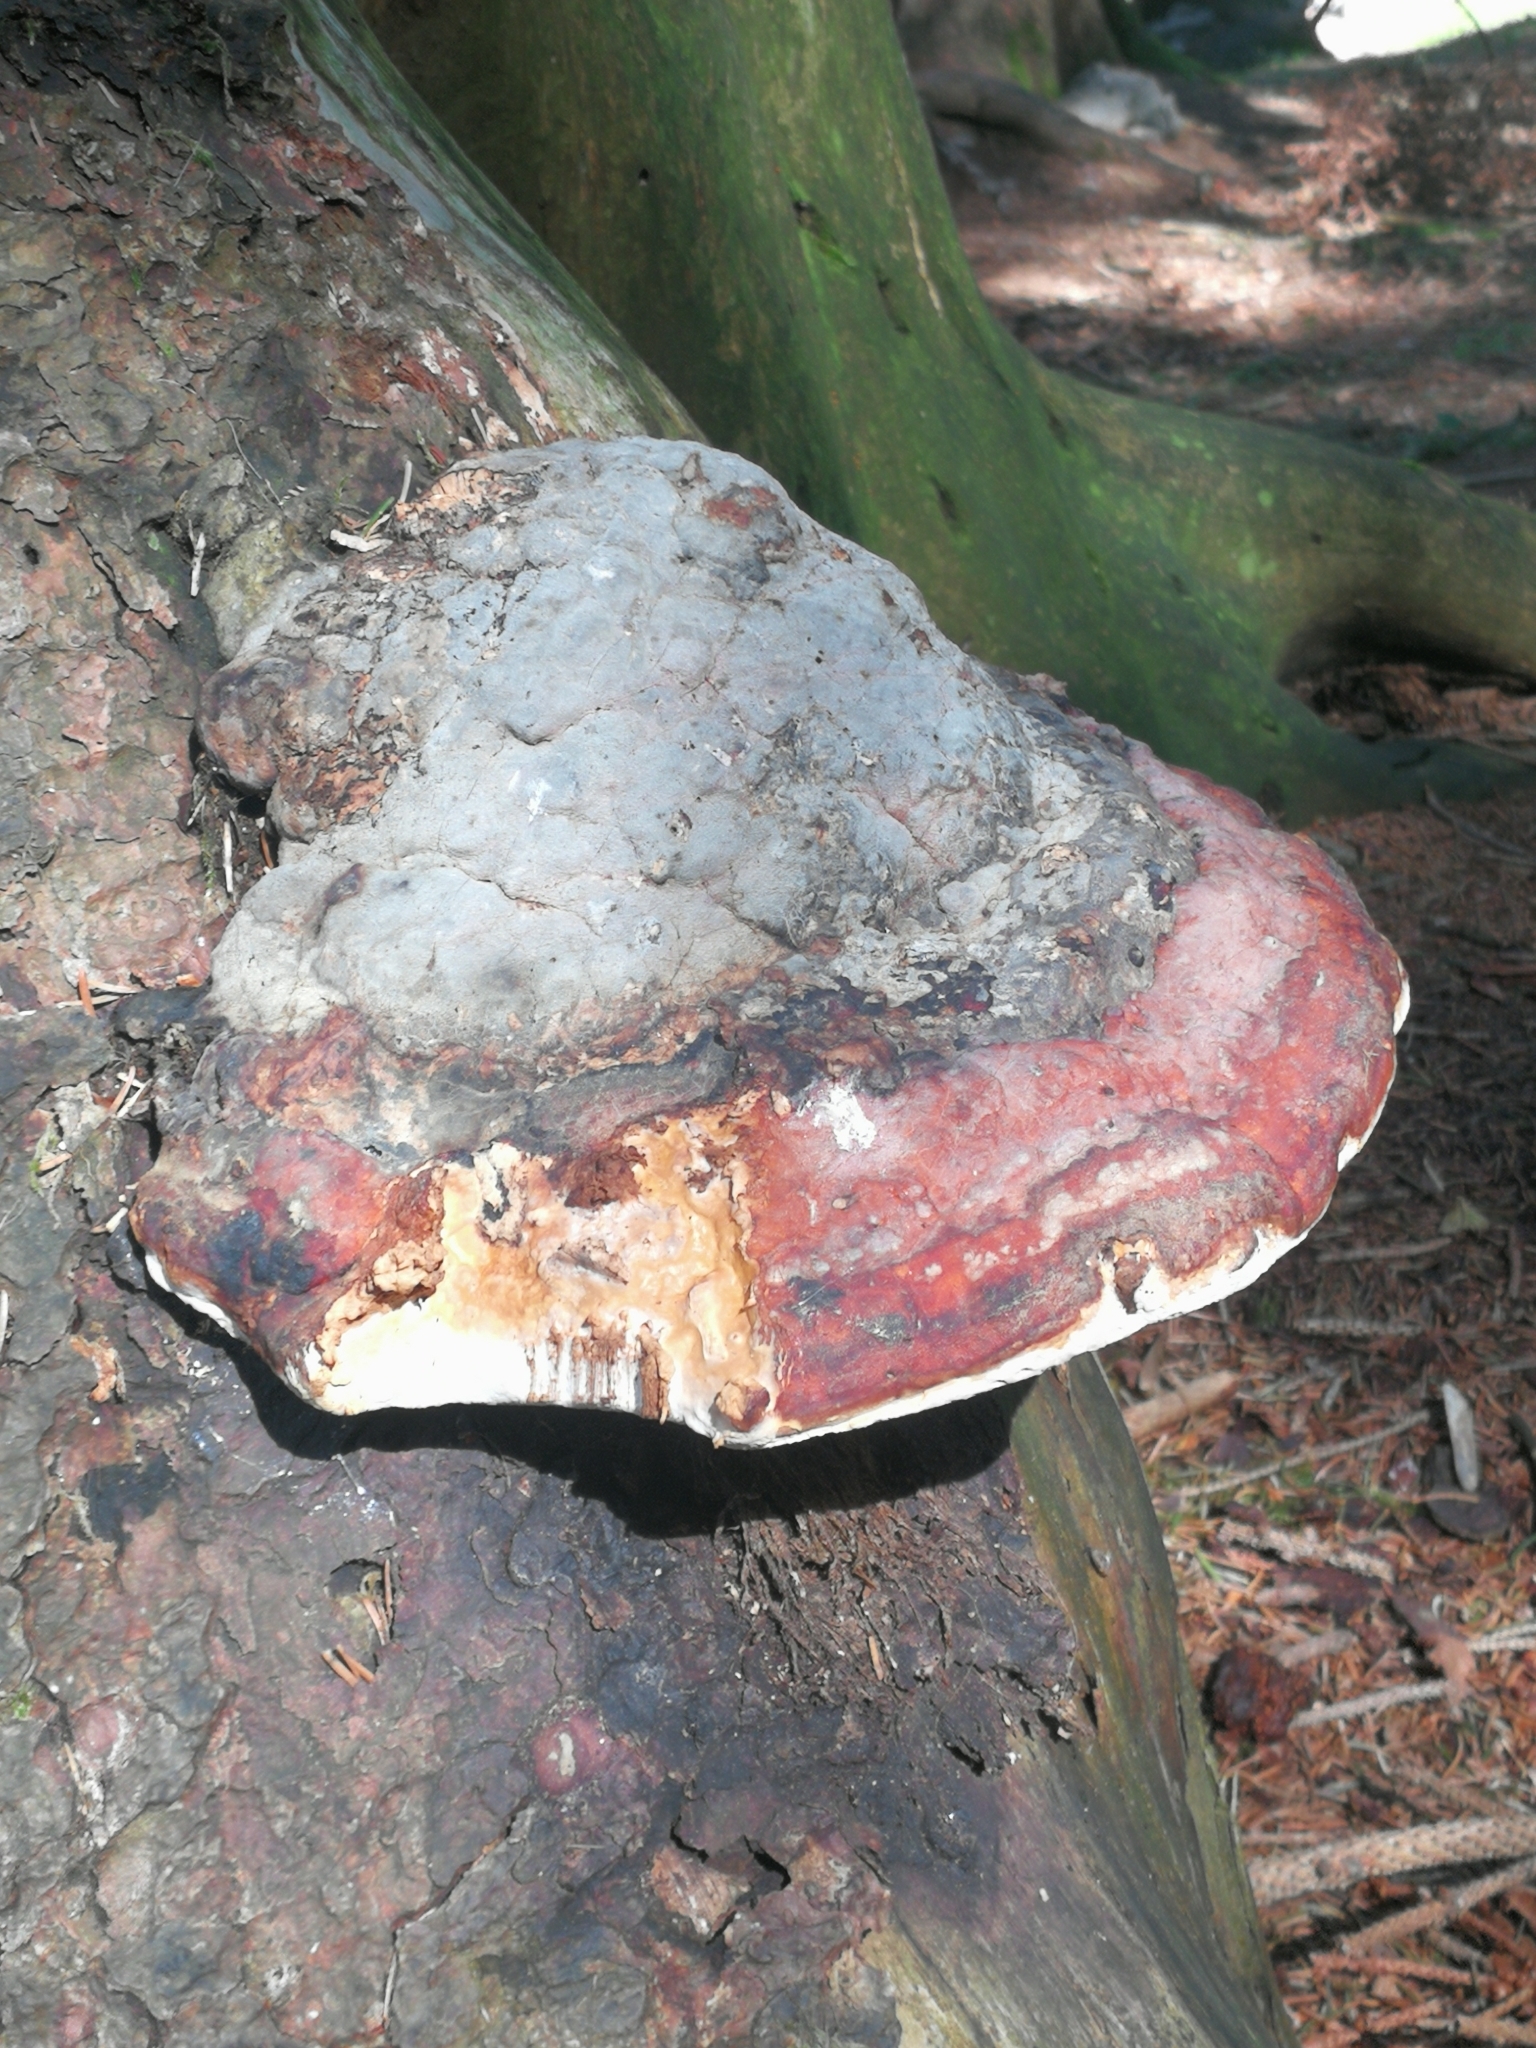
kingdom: Fungi
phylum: Basidiomycota
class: Agaricomycetes
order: Polyporales
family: Fomitopsidaceae
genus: Fomitopsis
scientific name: Fomitopsis pinicola
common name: Red-belted bracket
